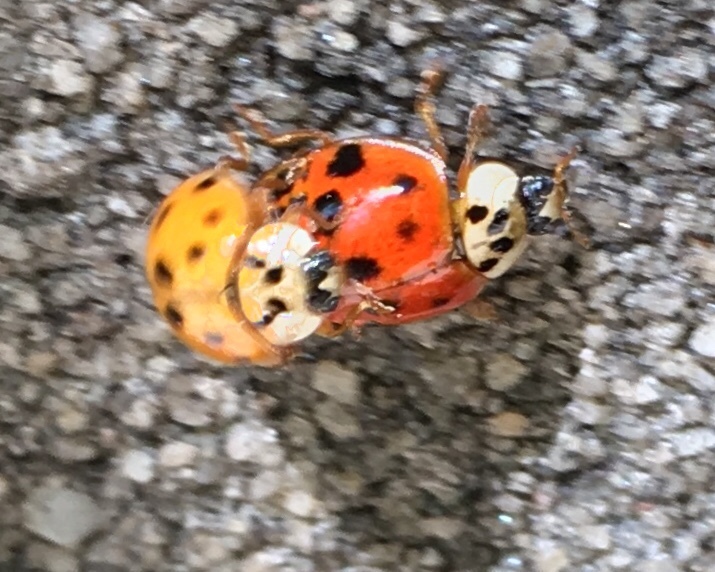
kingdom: Animalia
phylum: Arthropoda
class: Insecta
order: Coleoptera
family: Coccinellidae
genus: Harmonia
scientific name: Harmonia axyridis
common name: Harlequin ladybird
